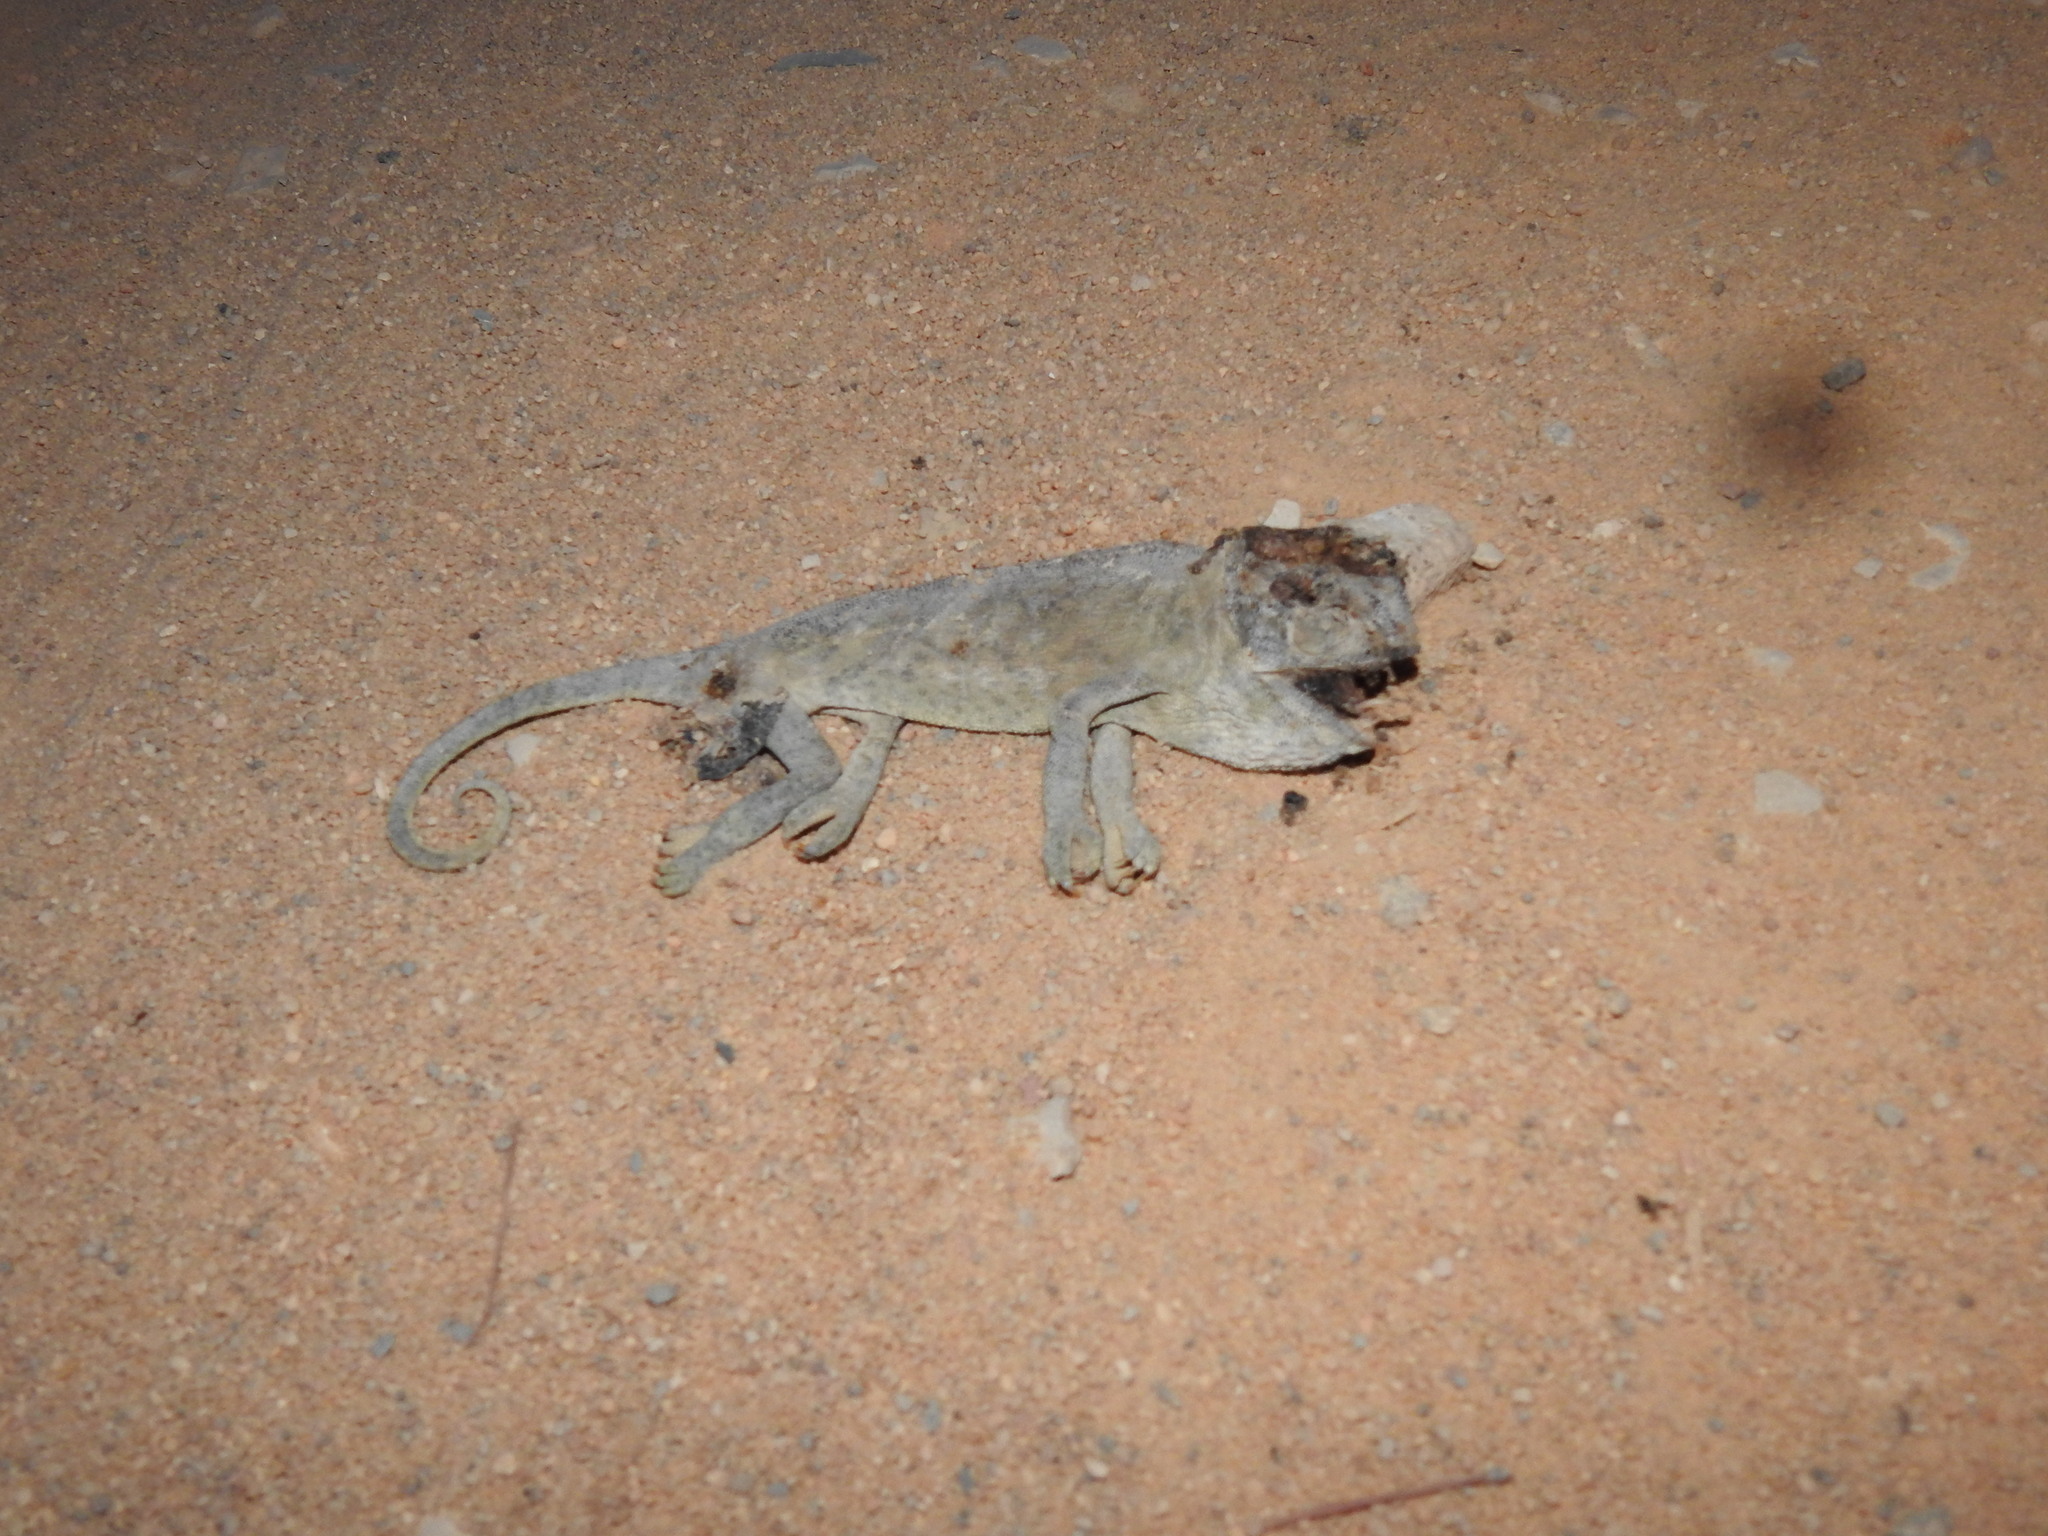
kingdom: Animalia
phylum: Chordata
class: Squamata
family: Chamaeleonidae
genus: Chamaeleo
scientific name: Chamaeleo chamaeleon
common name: Mediterranean chameleon
